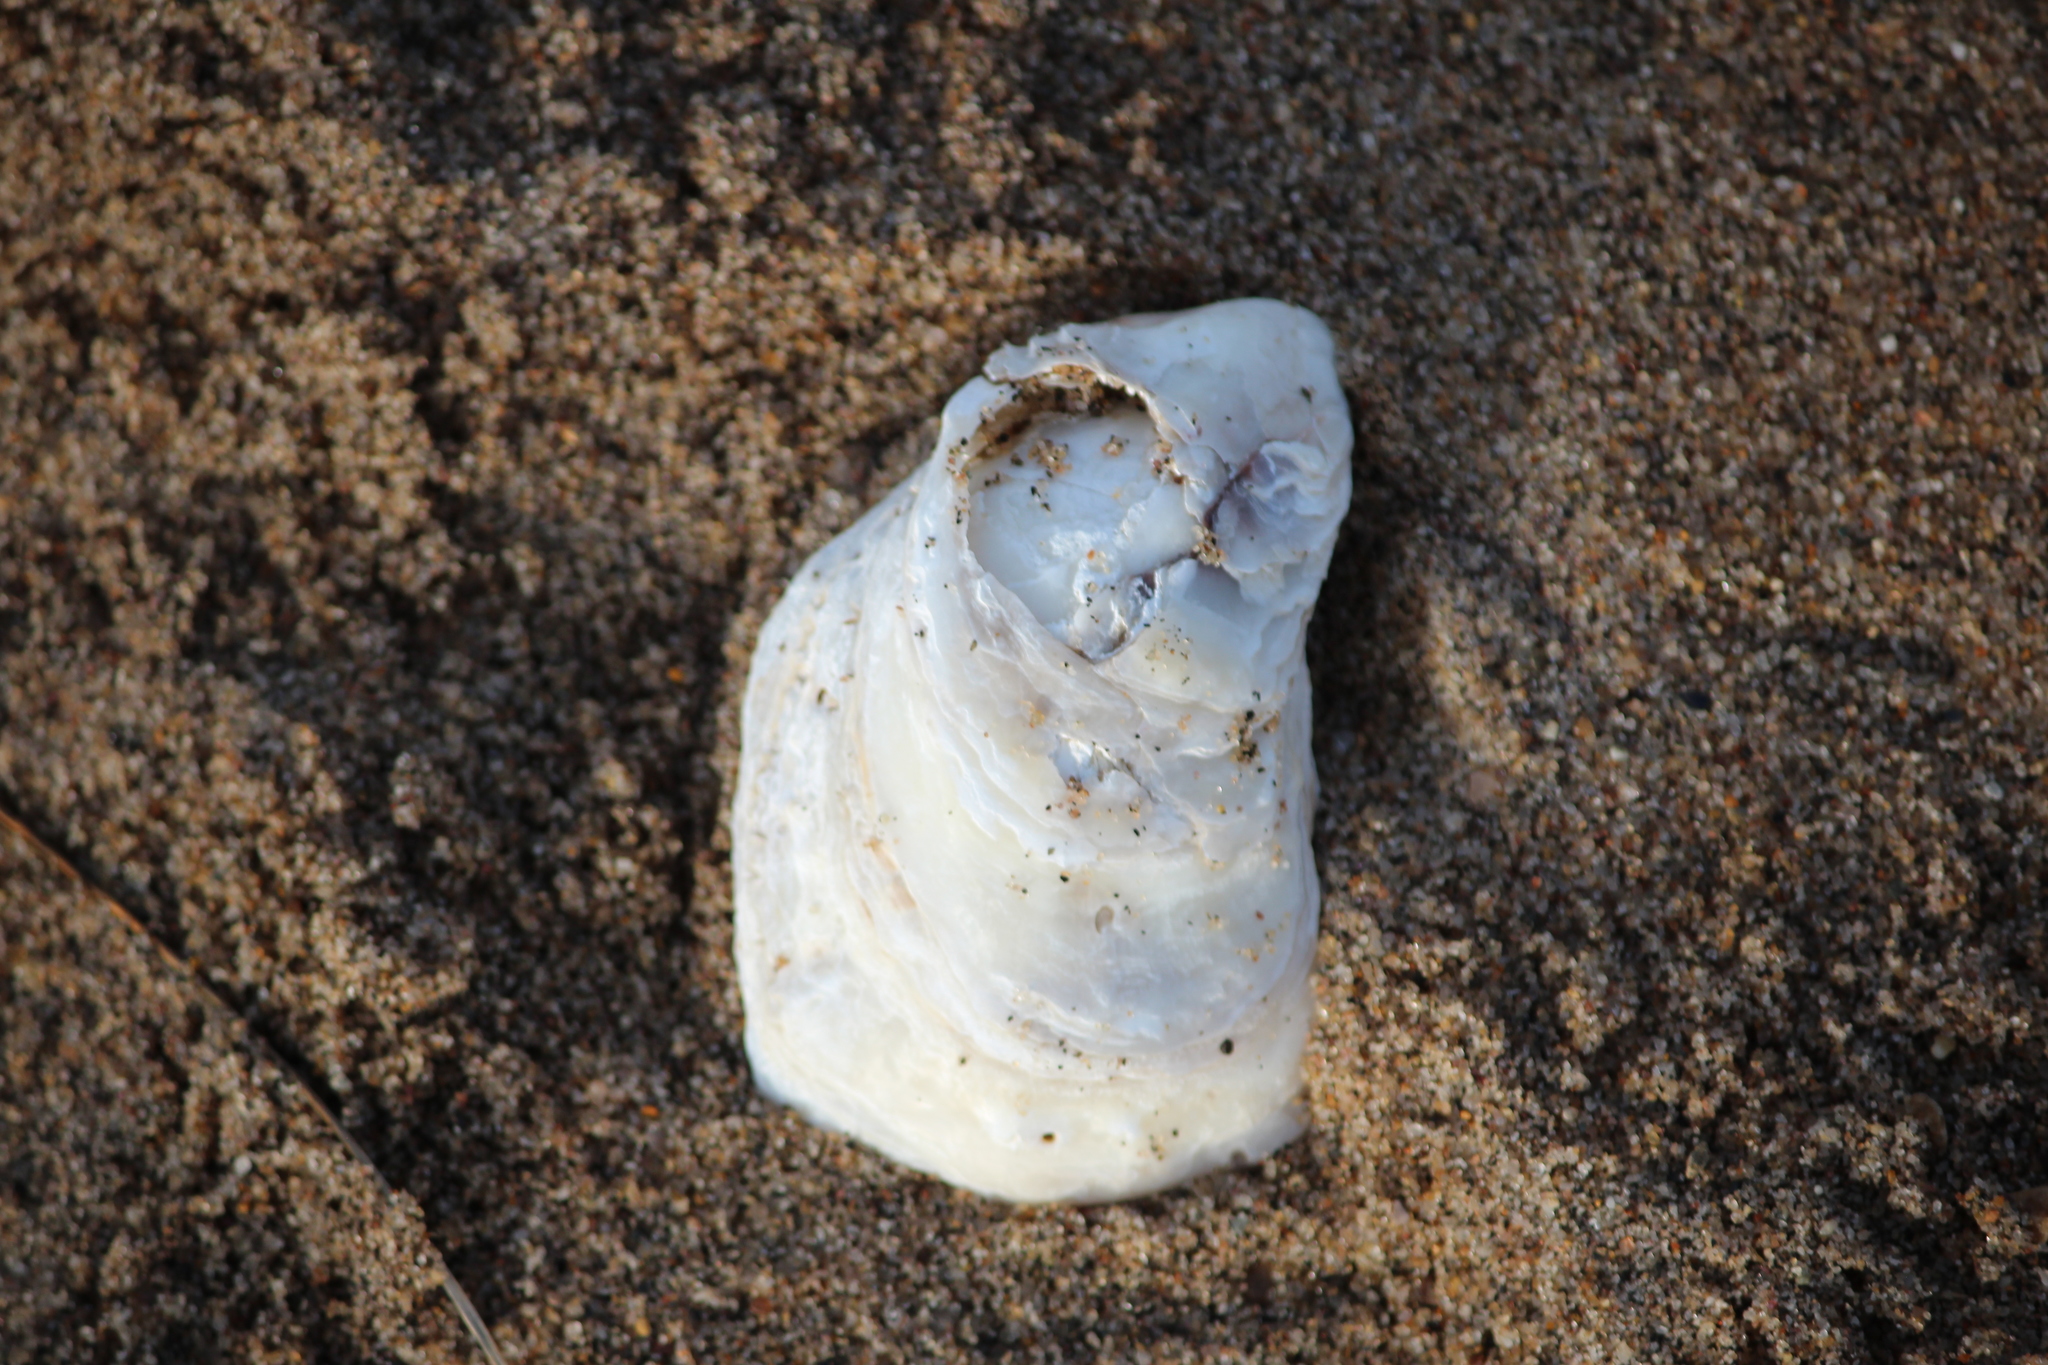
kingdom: Animalia
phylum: Mollusca
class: Bivalvia
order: Ostreida
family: Ostreidae
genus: Crassostrea
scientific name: Crassostrea virginica
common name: American oyster
